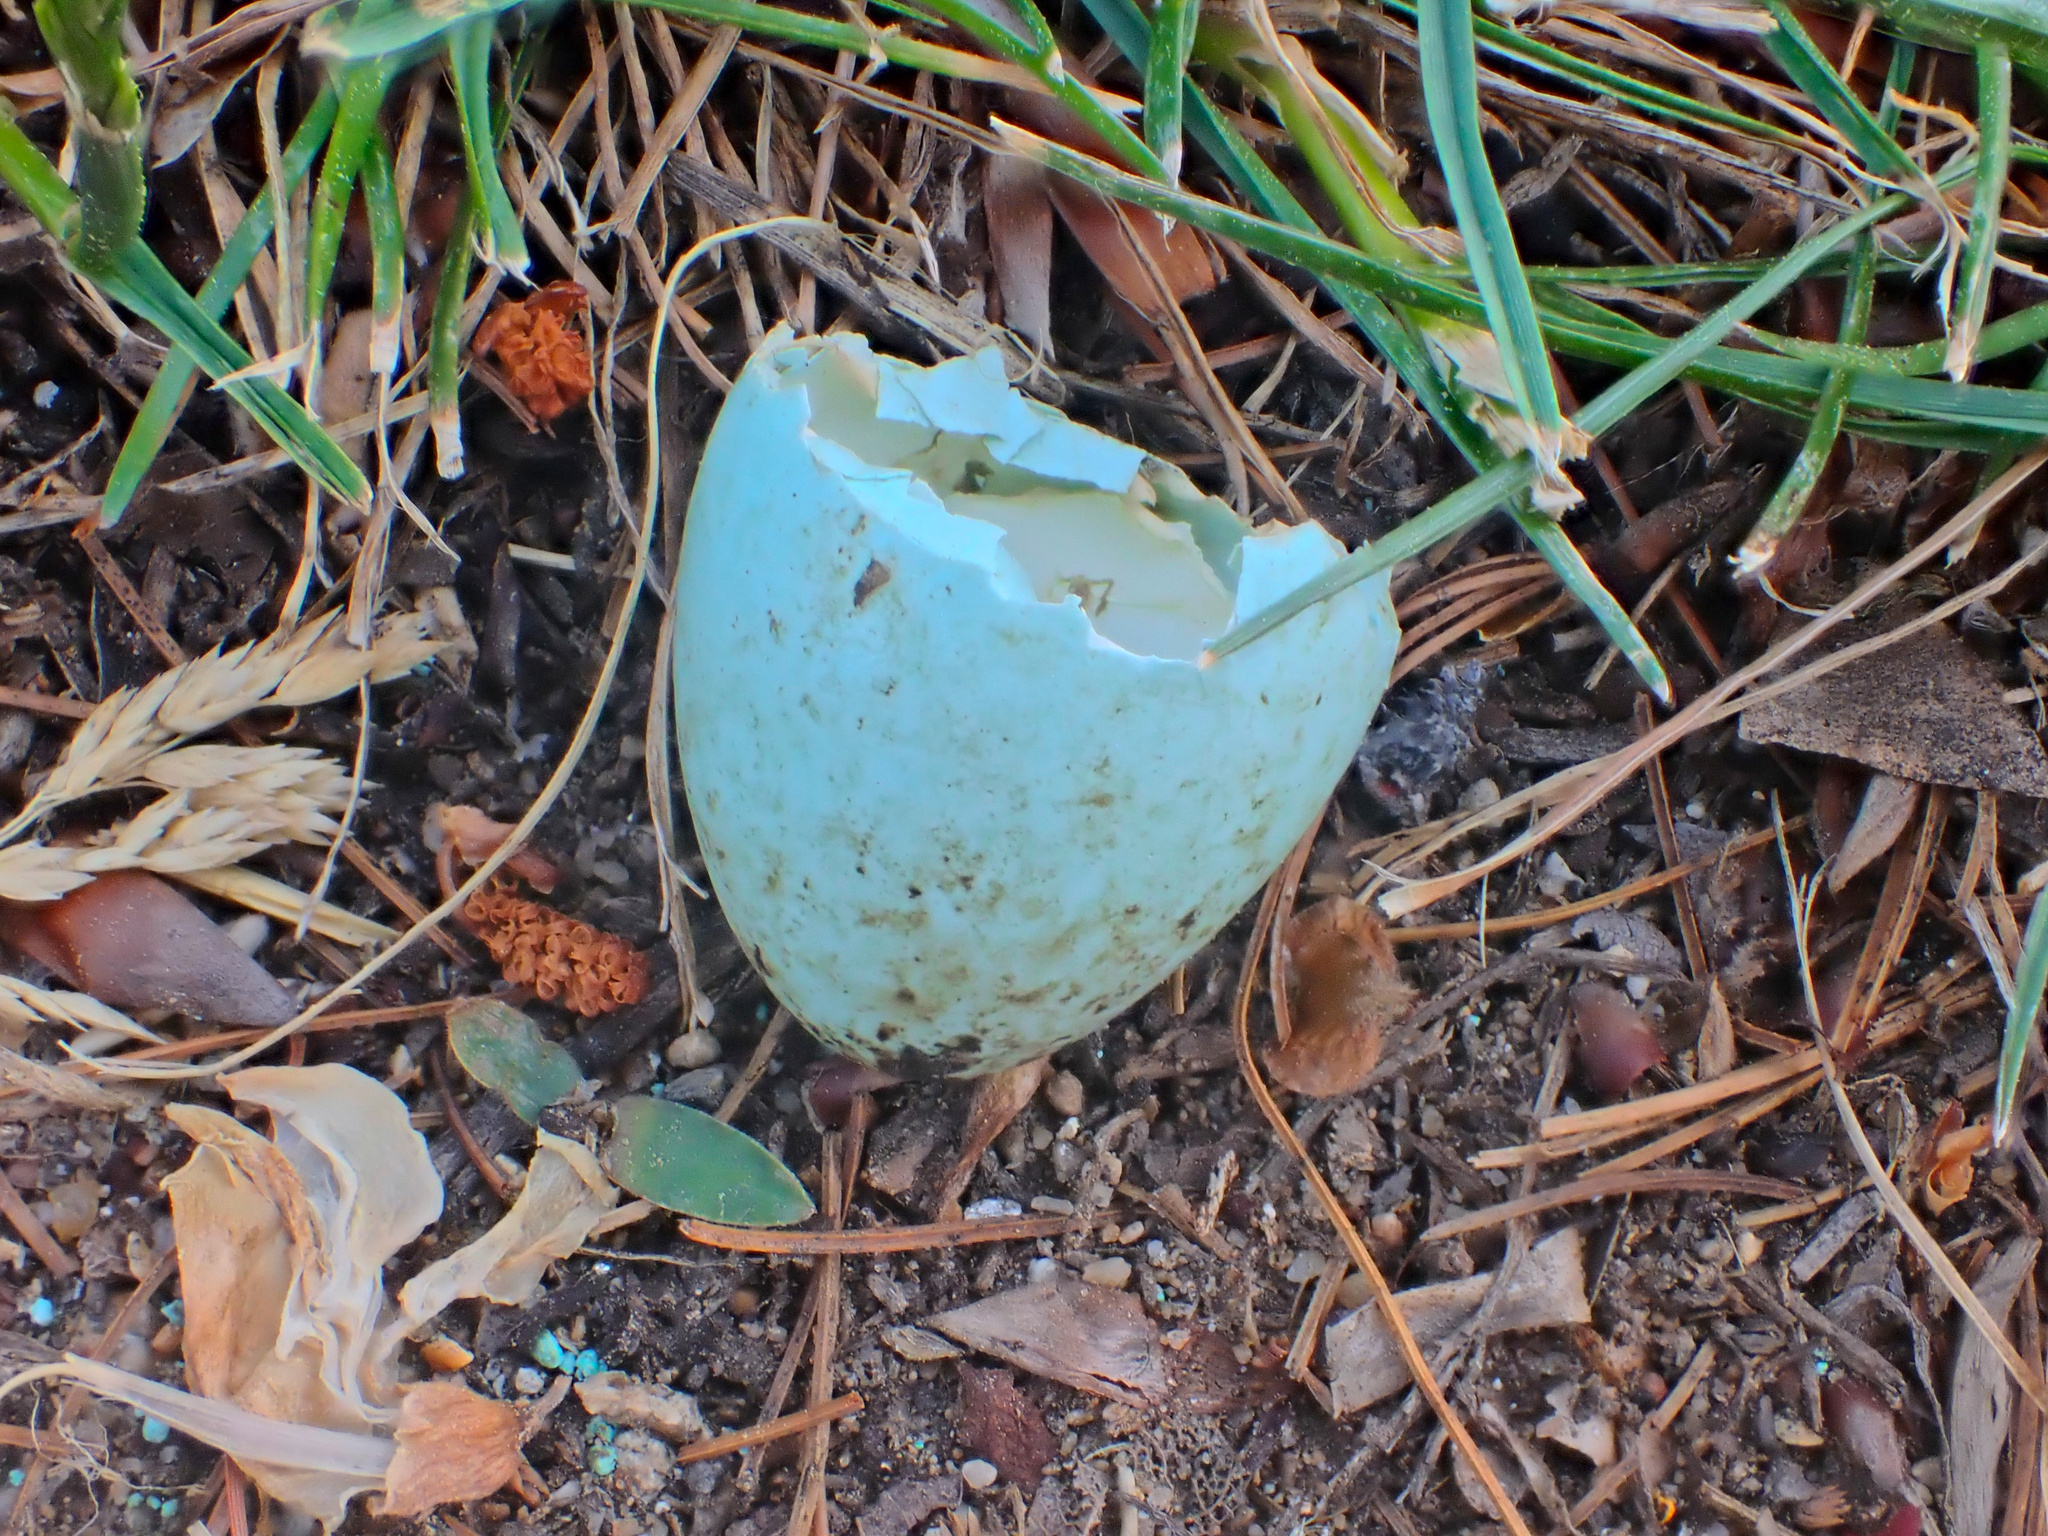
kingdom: Animalia
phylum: Chordata
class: Aves
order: Passeriformes
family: Turdidae
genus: Turdus
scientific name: Turdus migratorius
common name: American robin
